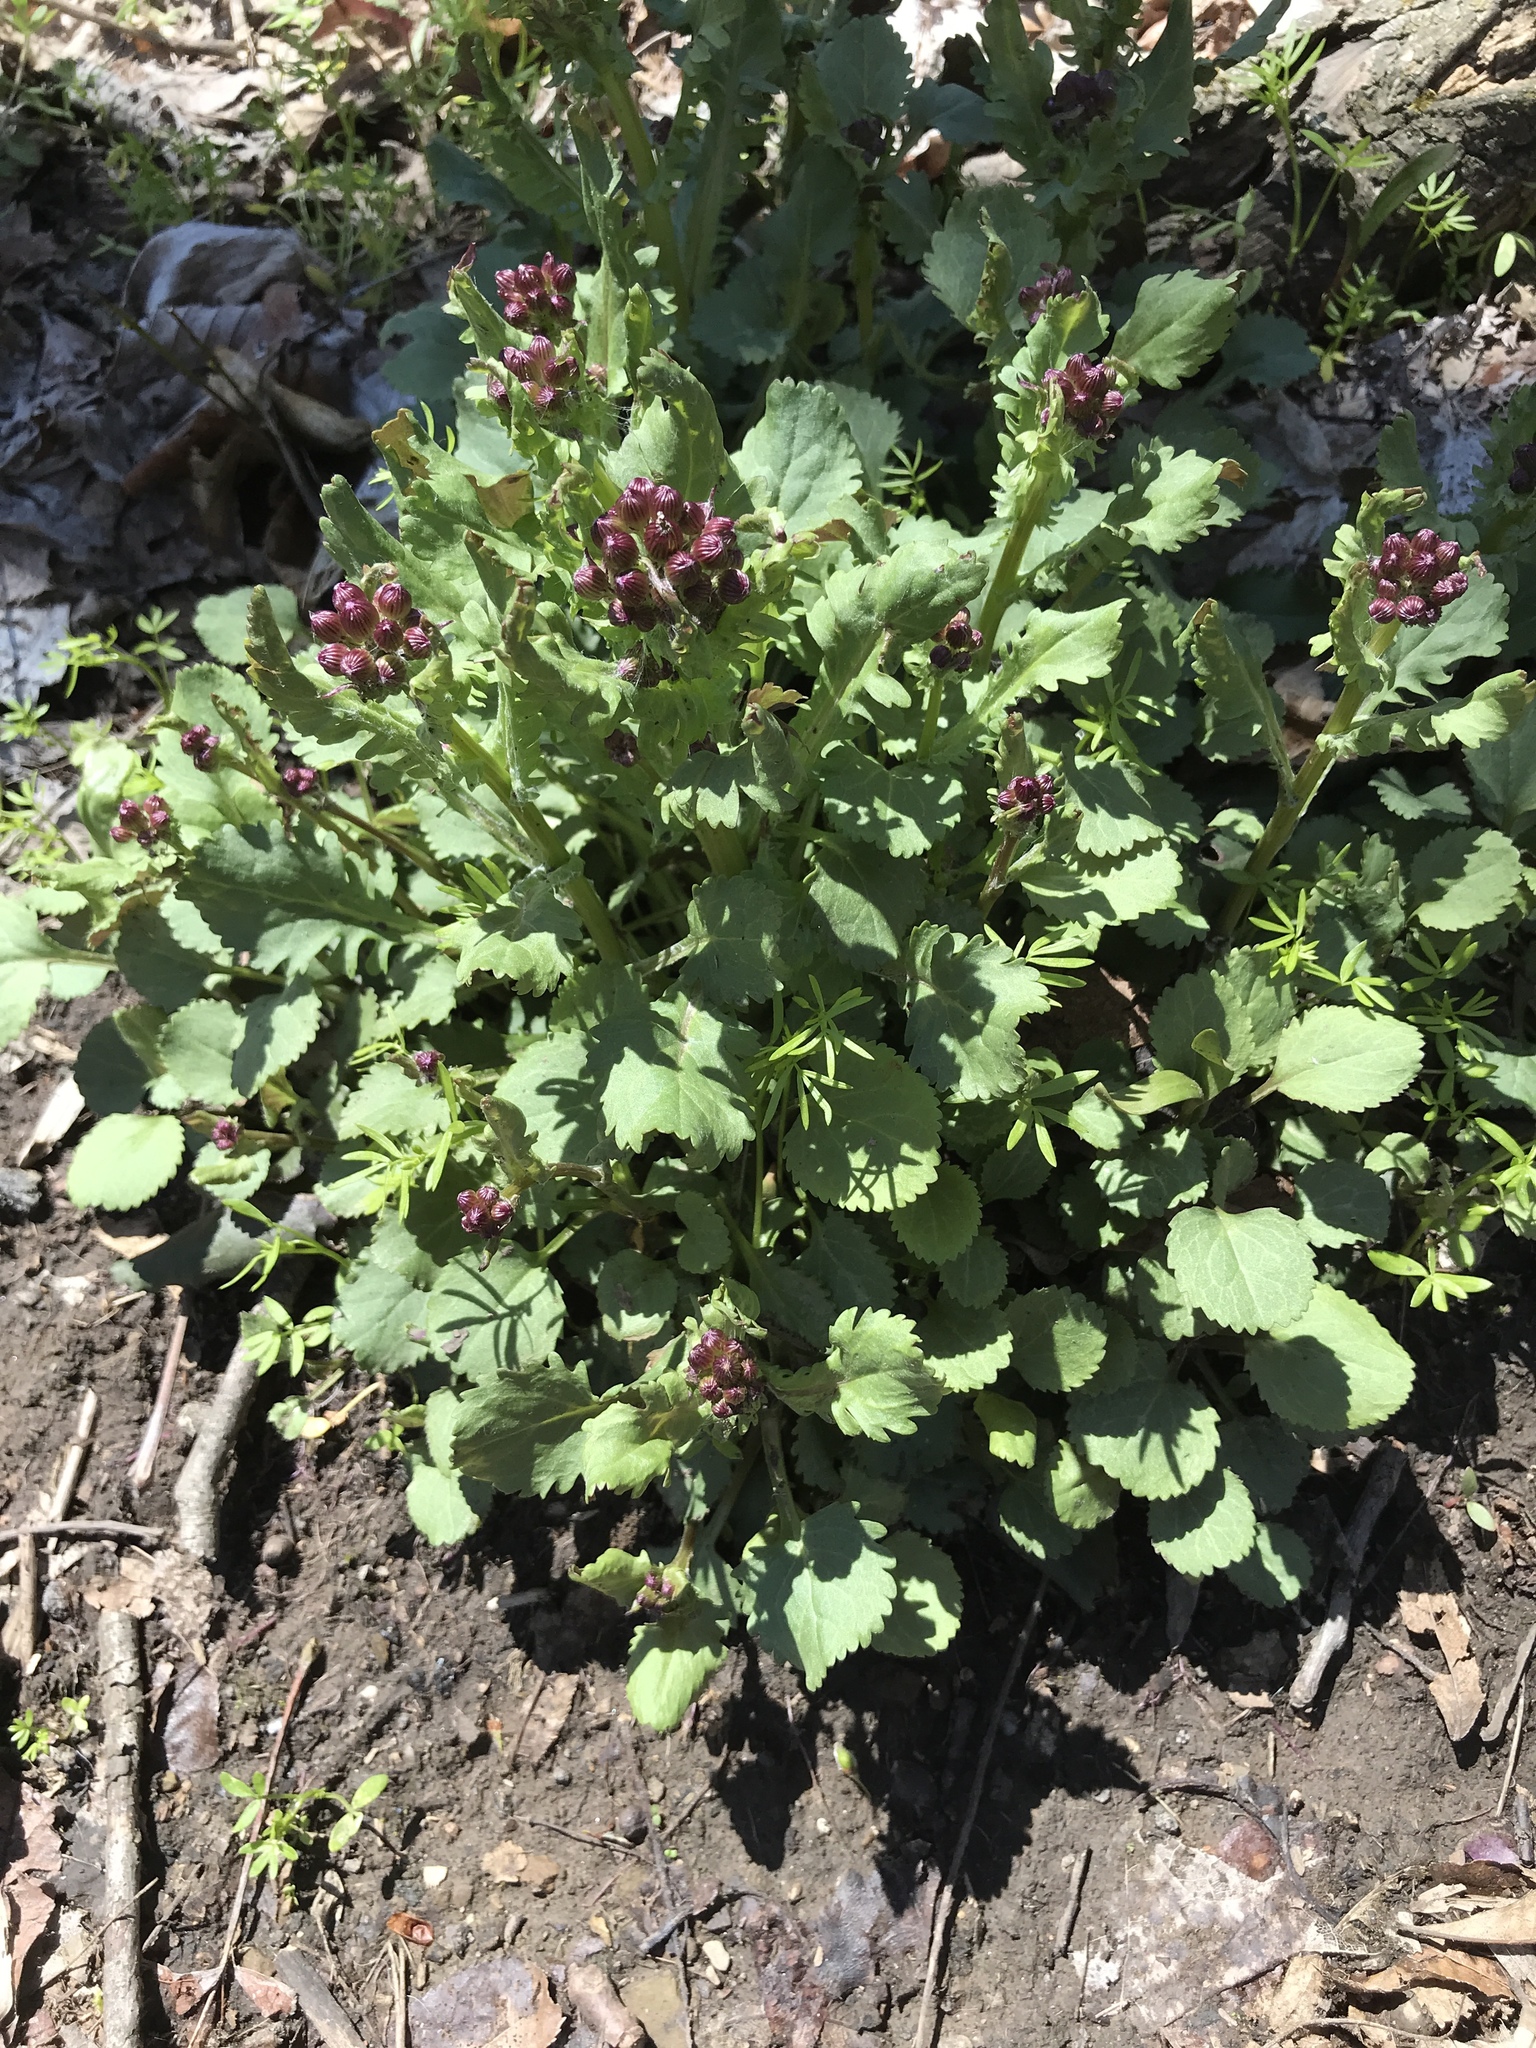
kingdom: Plantae
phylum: Tracheophyta
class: Magnoliopsida
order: Asterales
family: Asteraceae
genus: Packera
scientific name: Packera obovata
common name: Round-leaf ragwort
